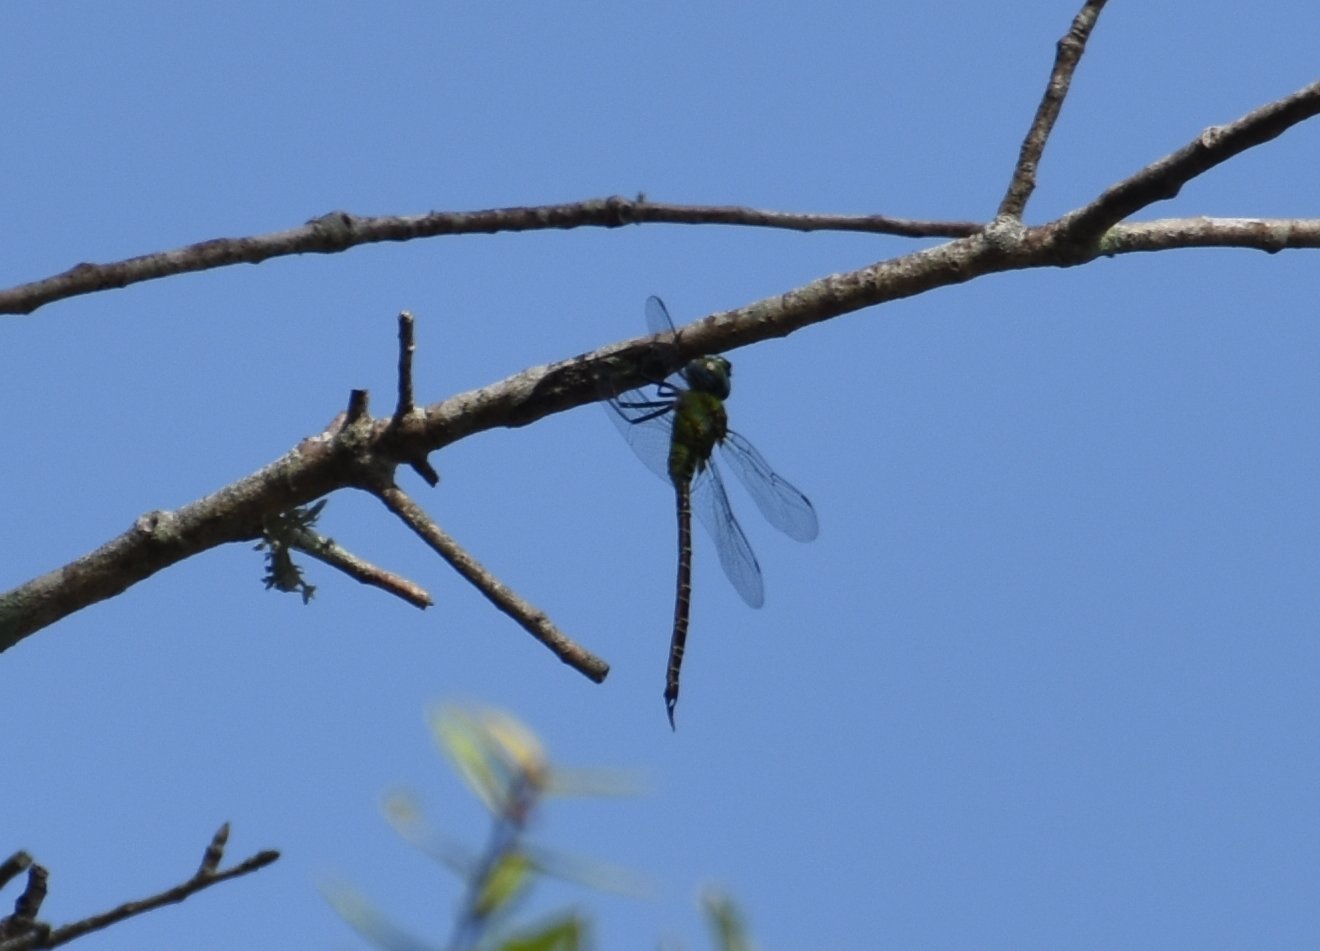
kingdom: Animalia
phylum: Arthropoda
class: Insecta
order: Odonata
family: Aeshnidae
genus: Coryphaeschna
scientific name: Coryphaeschna adnexa
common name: Blue-faced darner
